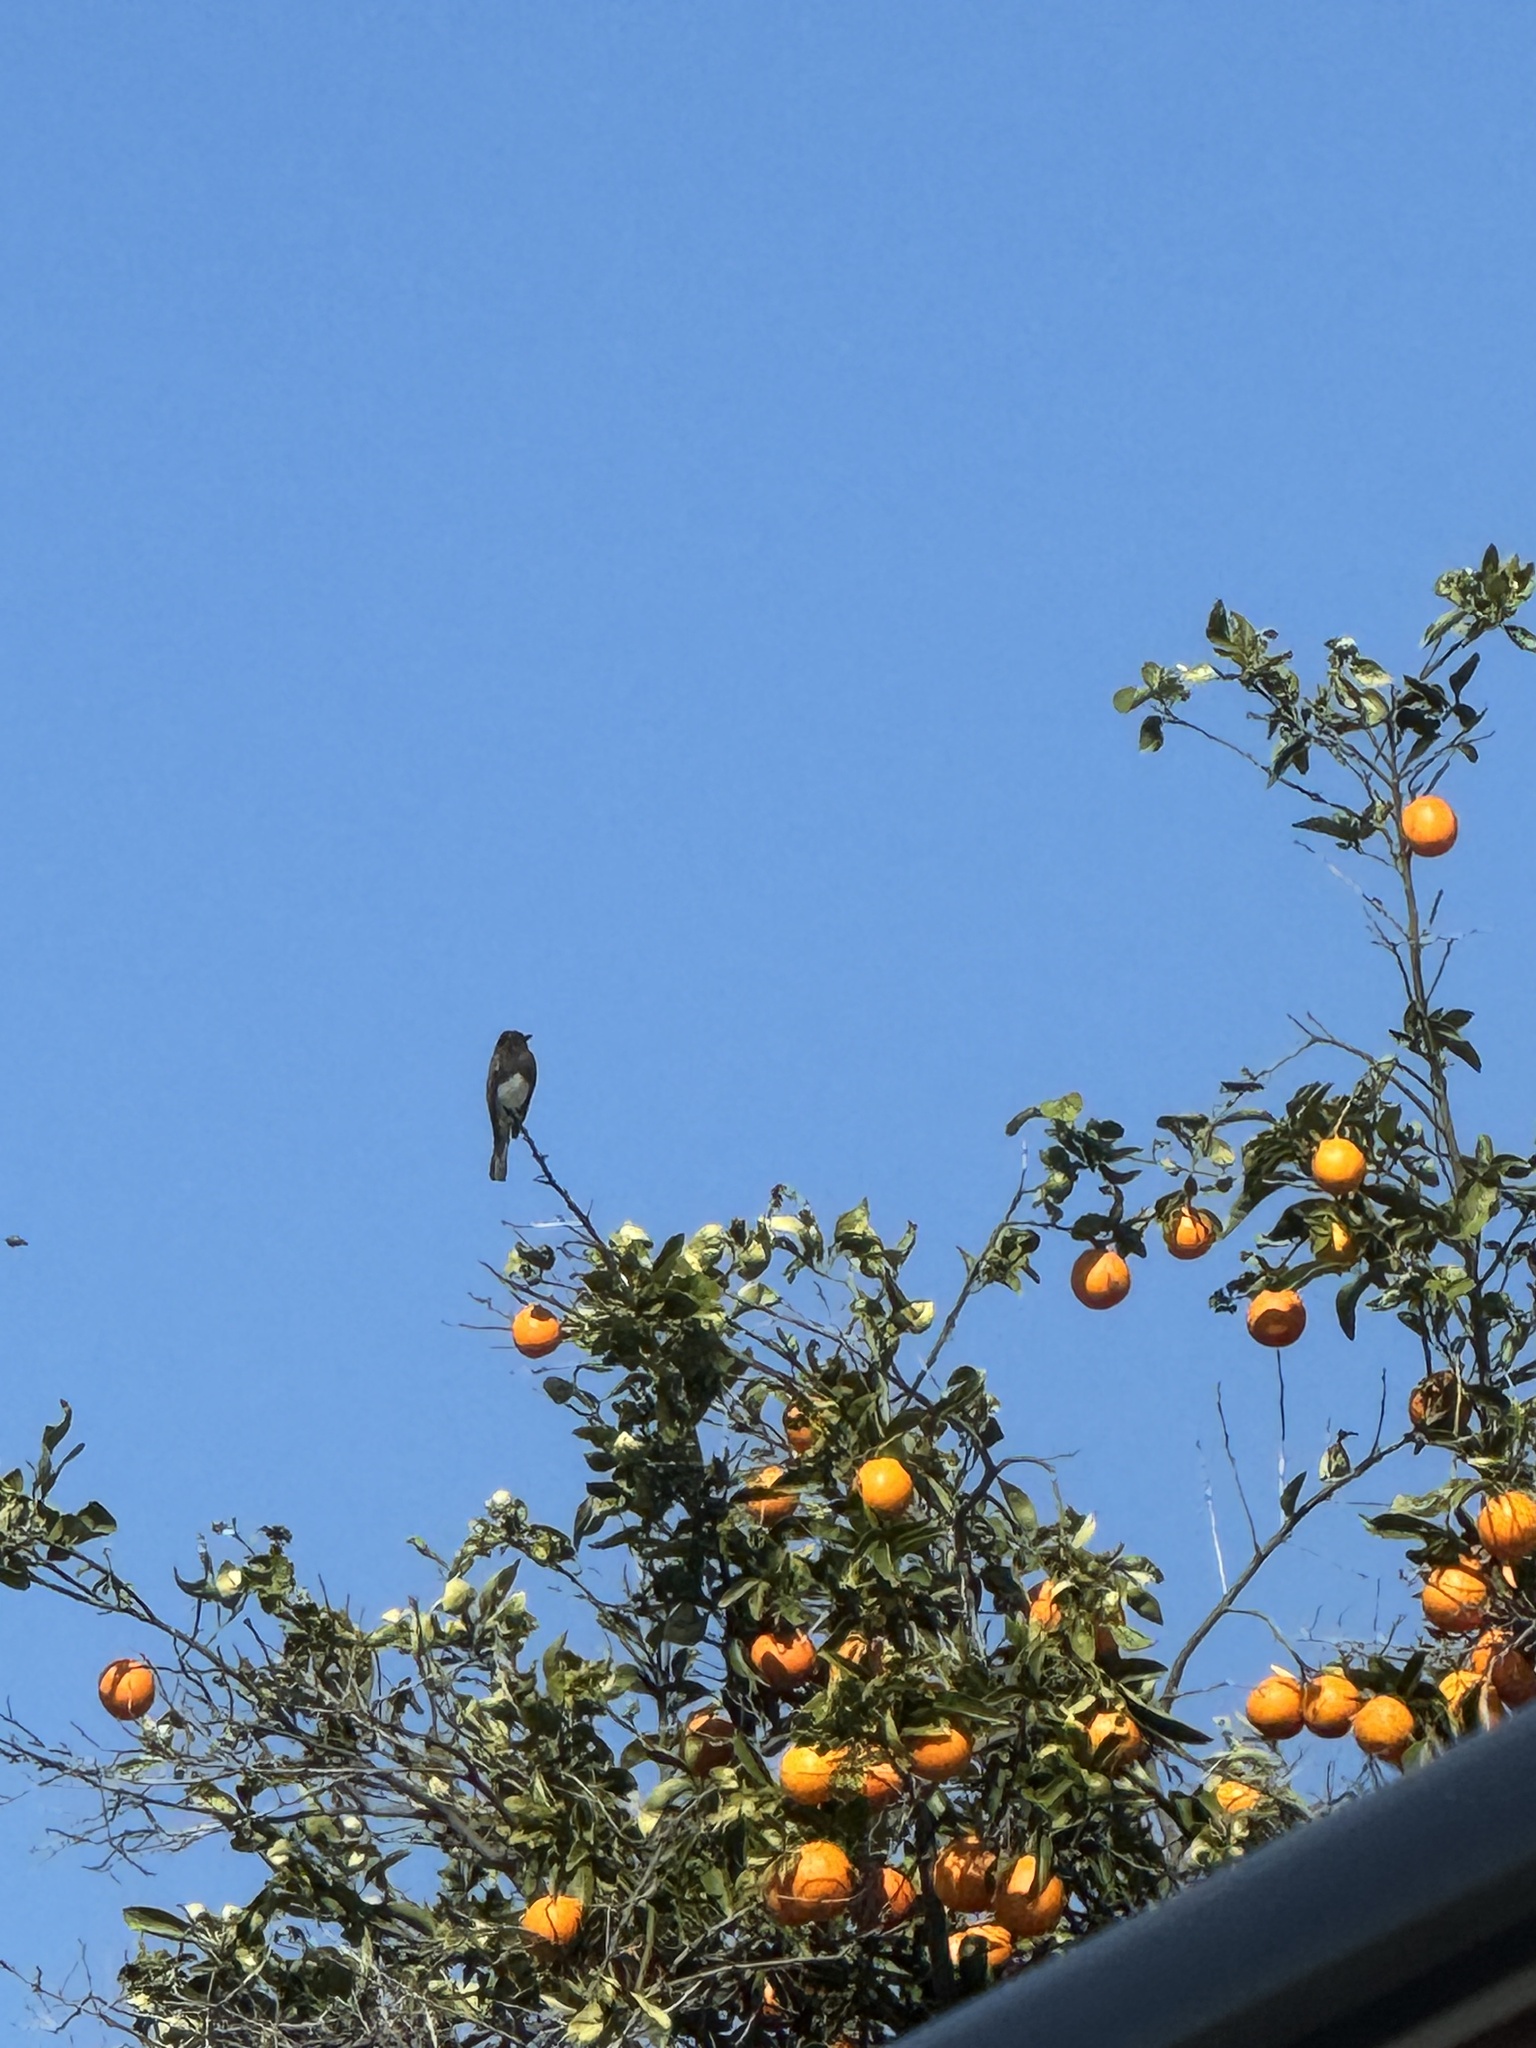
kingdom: Animalia
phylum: Chordata
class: Aves
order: Passeriformes
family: Tyrannidae
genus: Sayornis
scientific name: Sayornis nigricans
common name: Black phoebe
